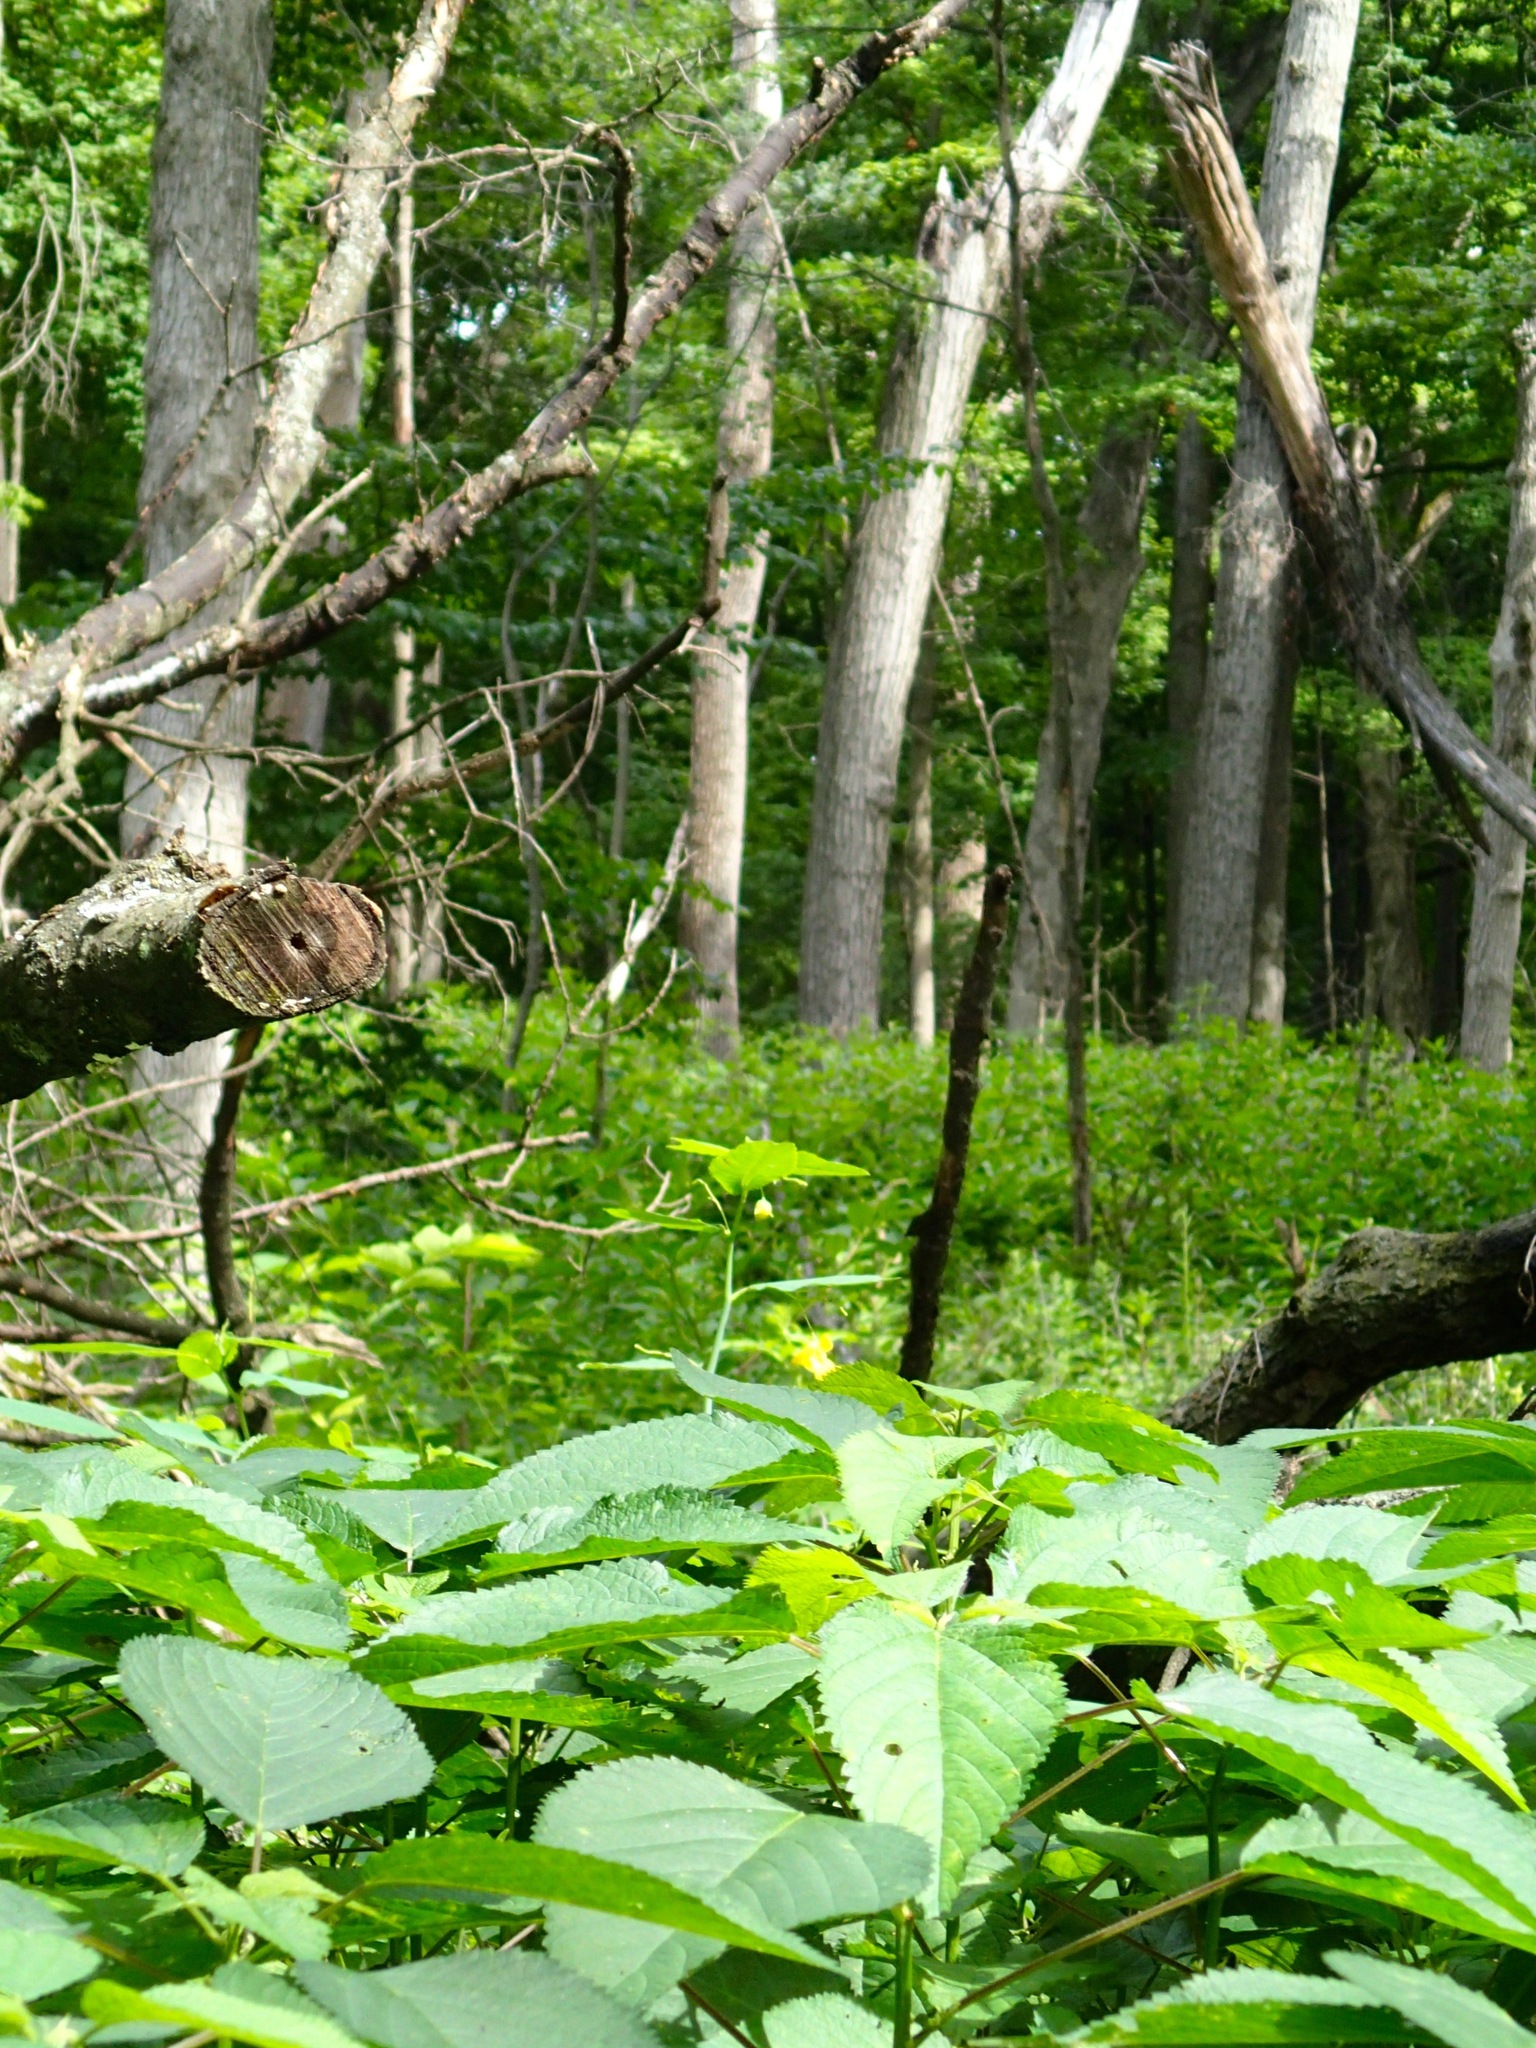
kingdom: Plantae
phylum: Tracheophyta
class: Magnoliopsida
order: Ericales
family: Balsaminaceae
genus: Impatiens
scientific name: Impatiens pallida
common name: Pale snapweed
